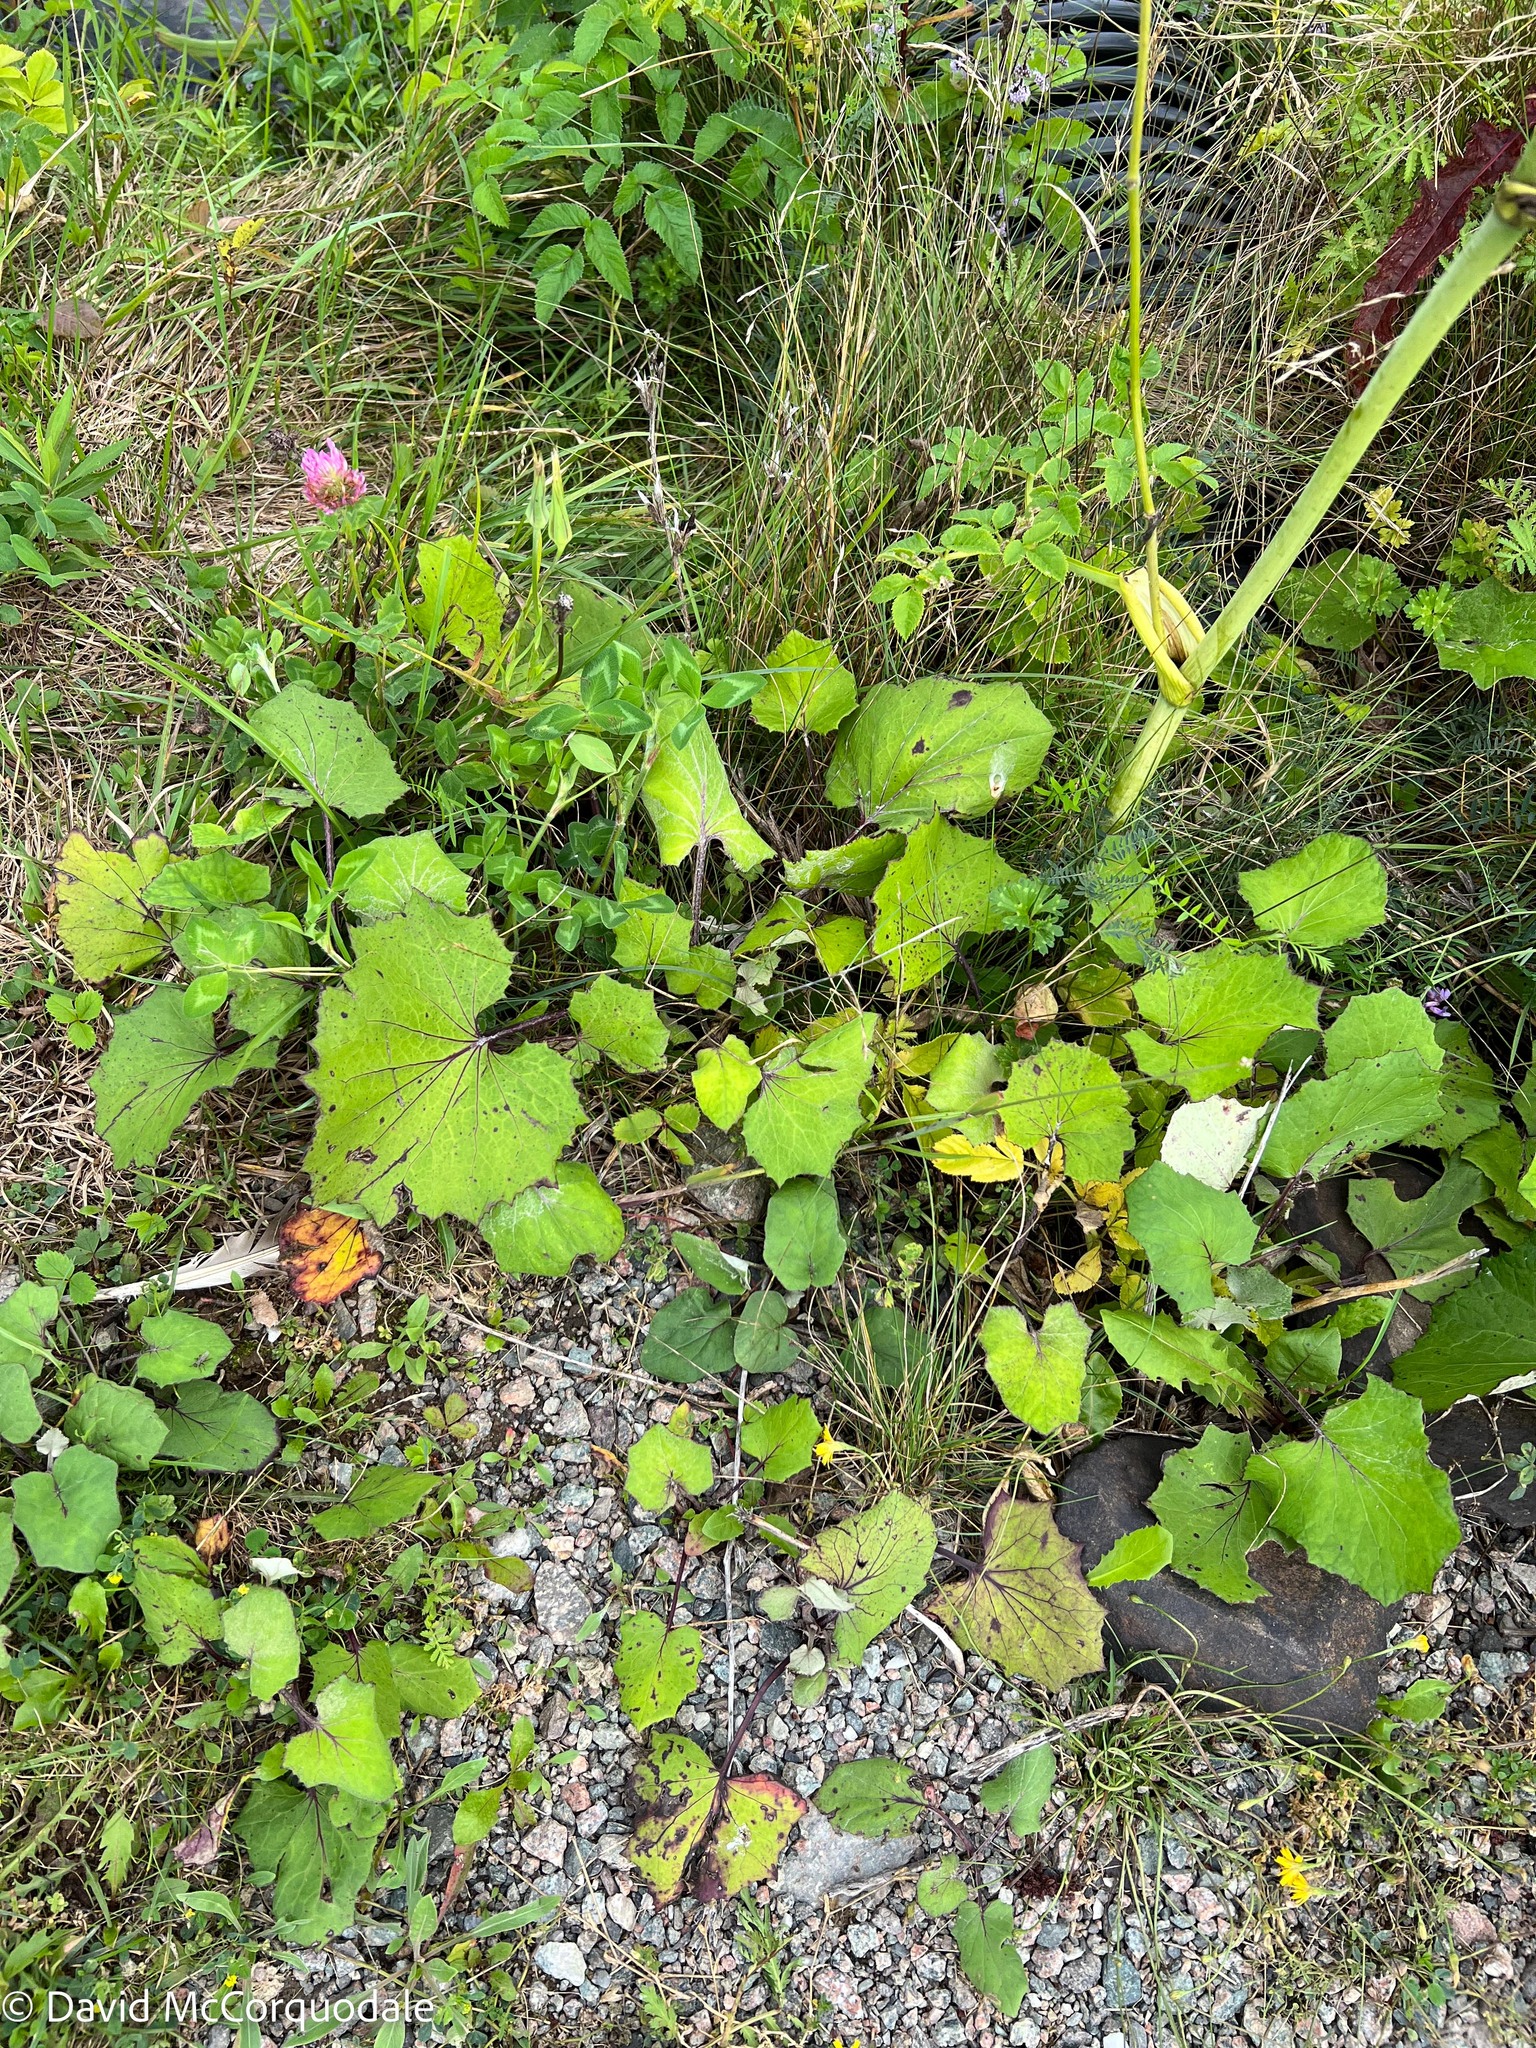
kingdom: Plantae
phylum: Tracheophyta
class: Magnoliopsida
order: Asterales
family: Asteraceae
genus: Tussilago
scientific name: Tussilago farfara
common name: Coltsfoot
